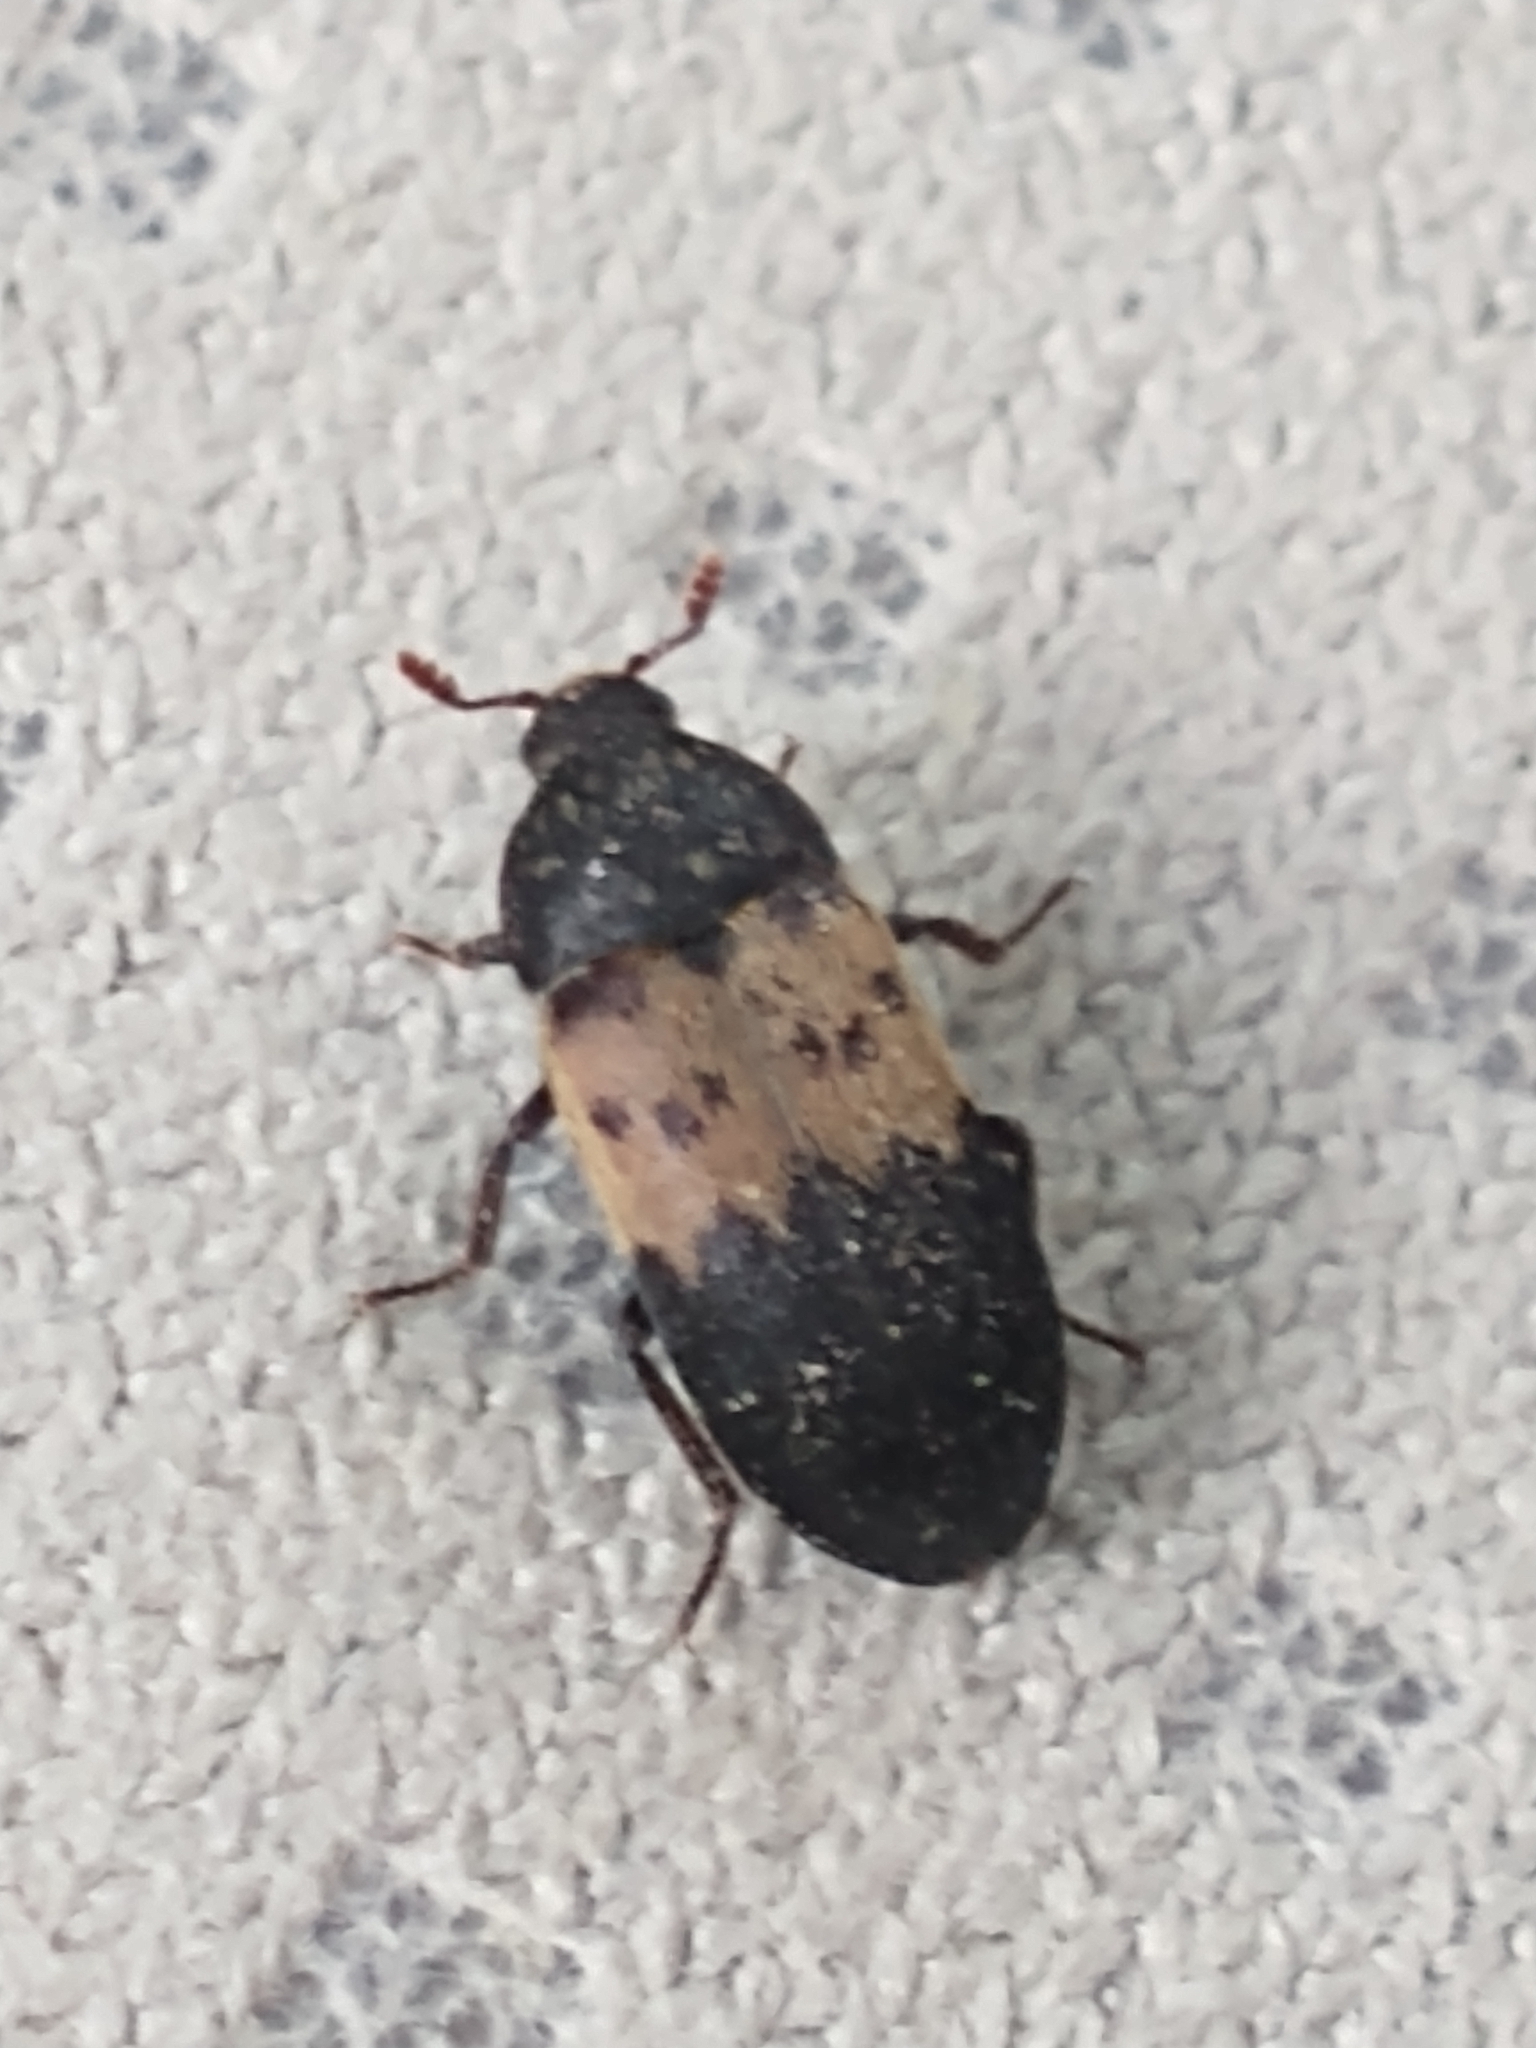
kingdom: Animalia
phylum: Arthropoda
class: Insecta
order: Coleoptera
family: Dermestidae
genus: Dermestes
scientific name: Dermestes lardarius
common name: Larder beetle
